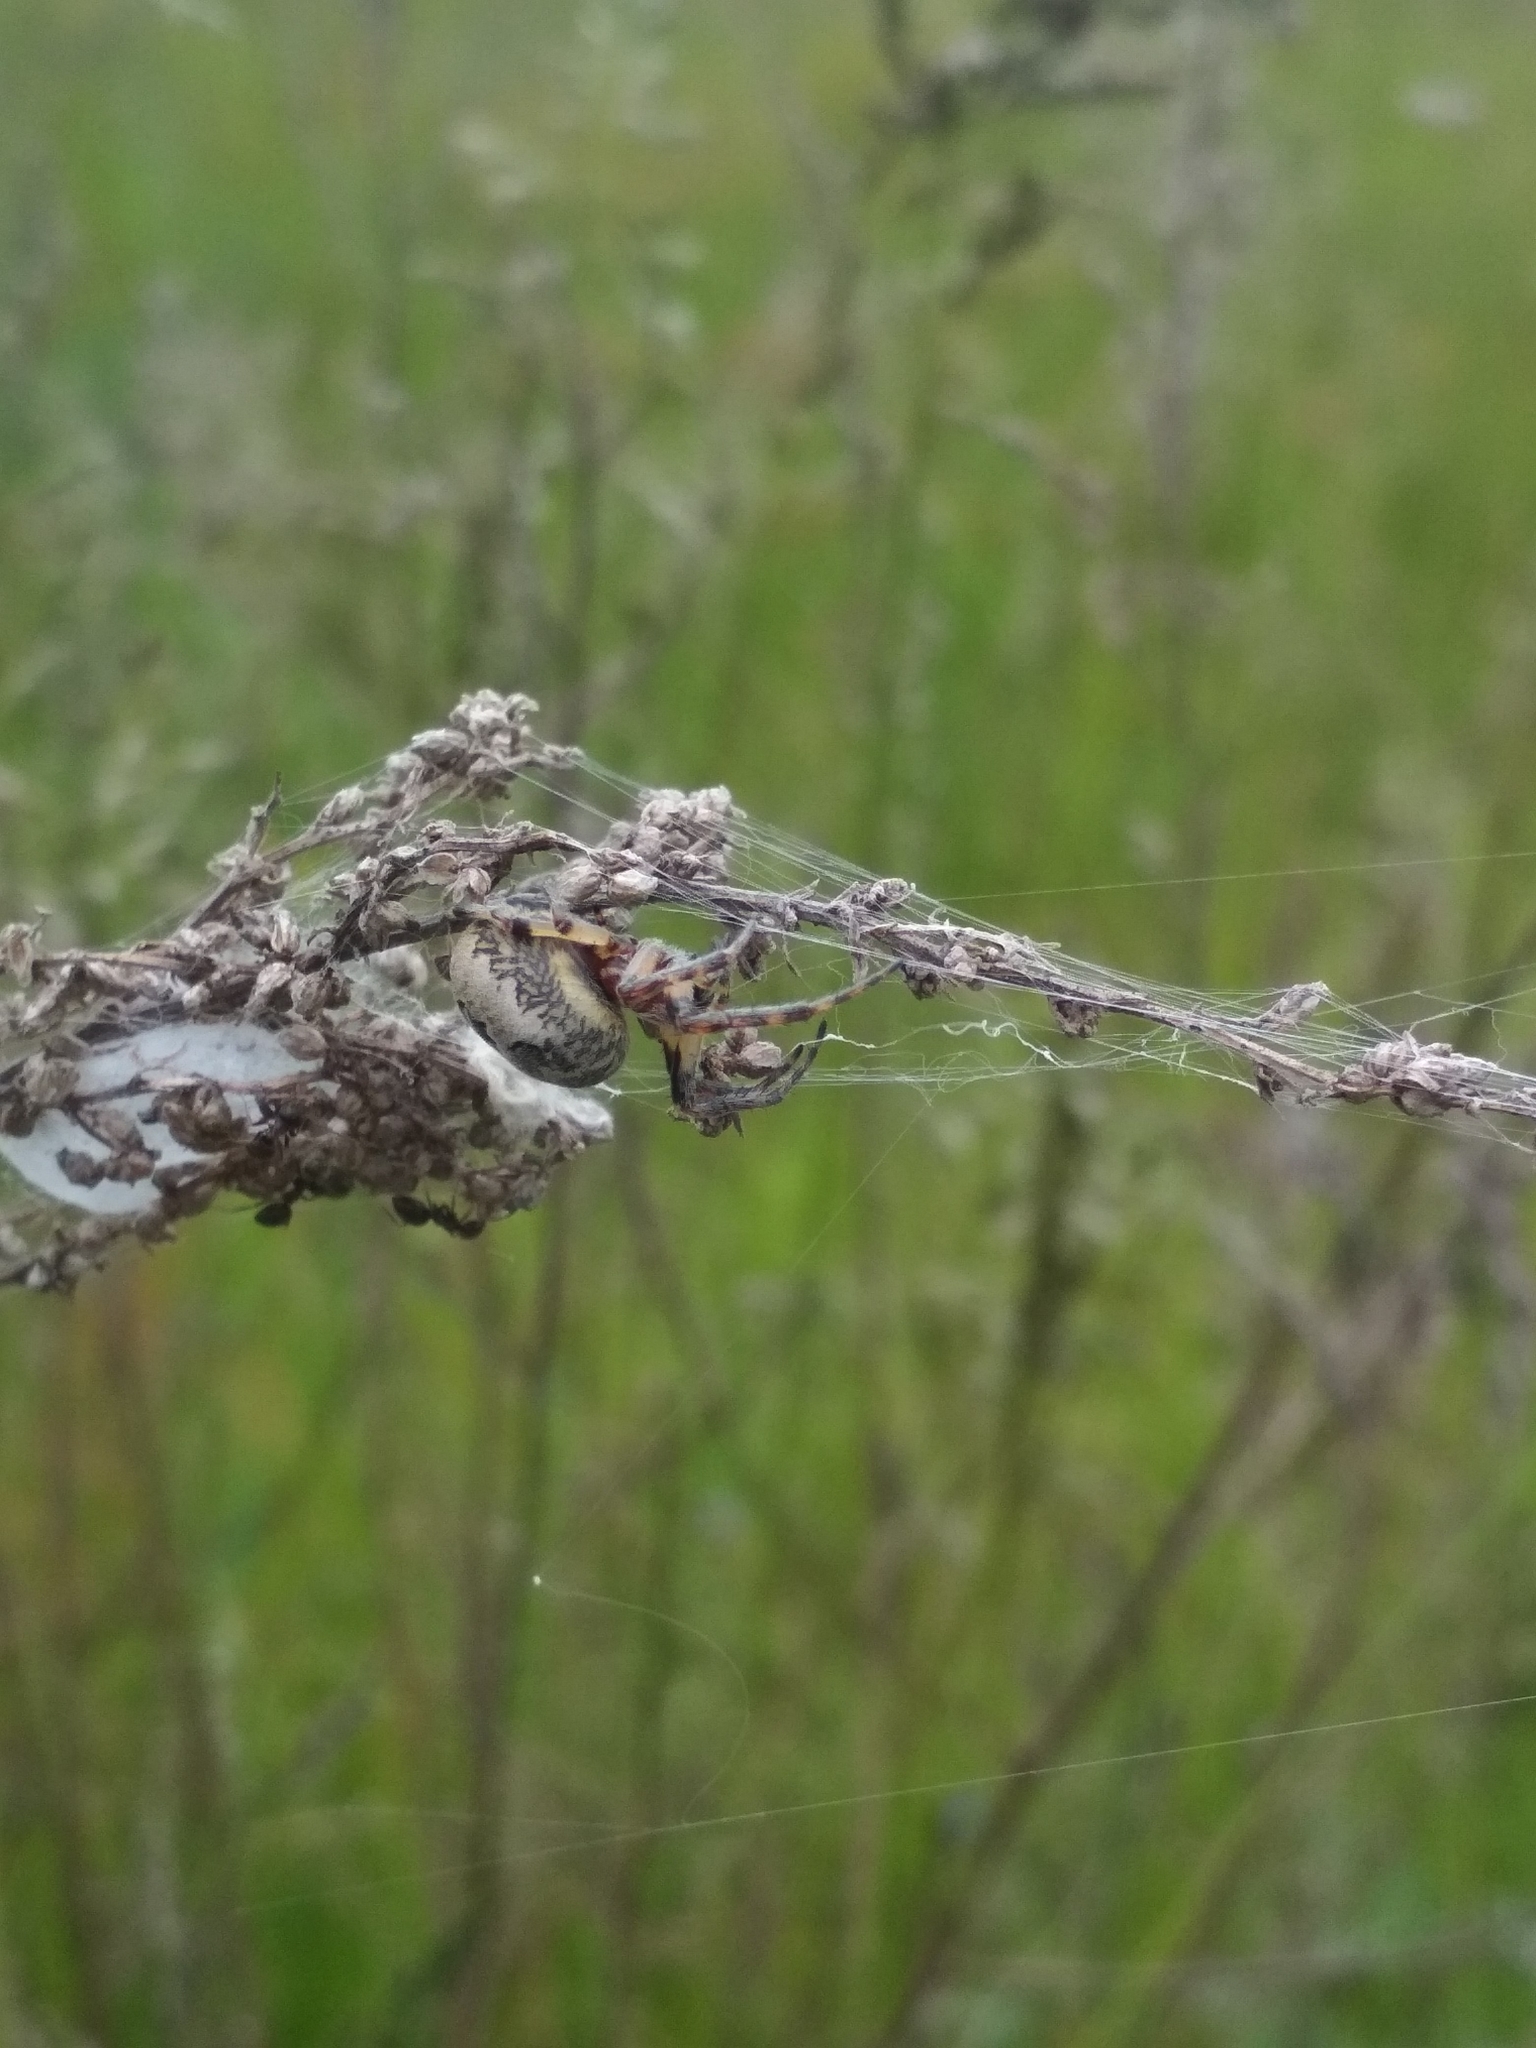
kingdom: Animalia
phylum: Arthropoda
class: Arachnida
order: Araneae
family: Araneidae
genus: Araneus
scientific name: Araneus marmoreus
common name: Marbled orbweaver
